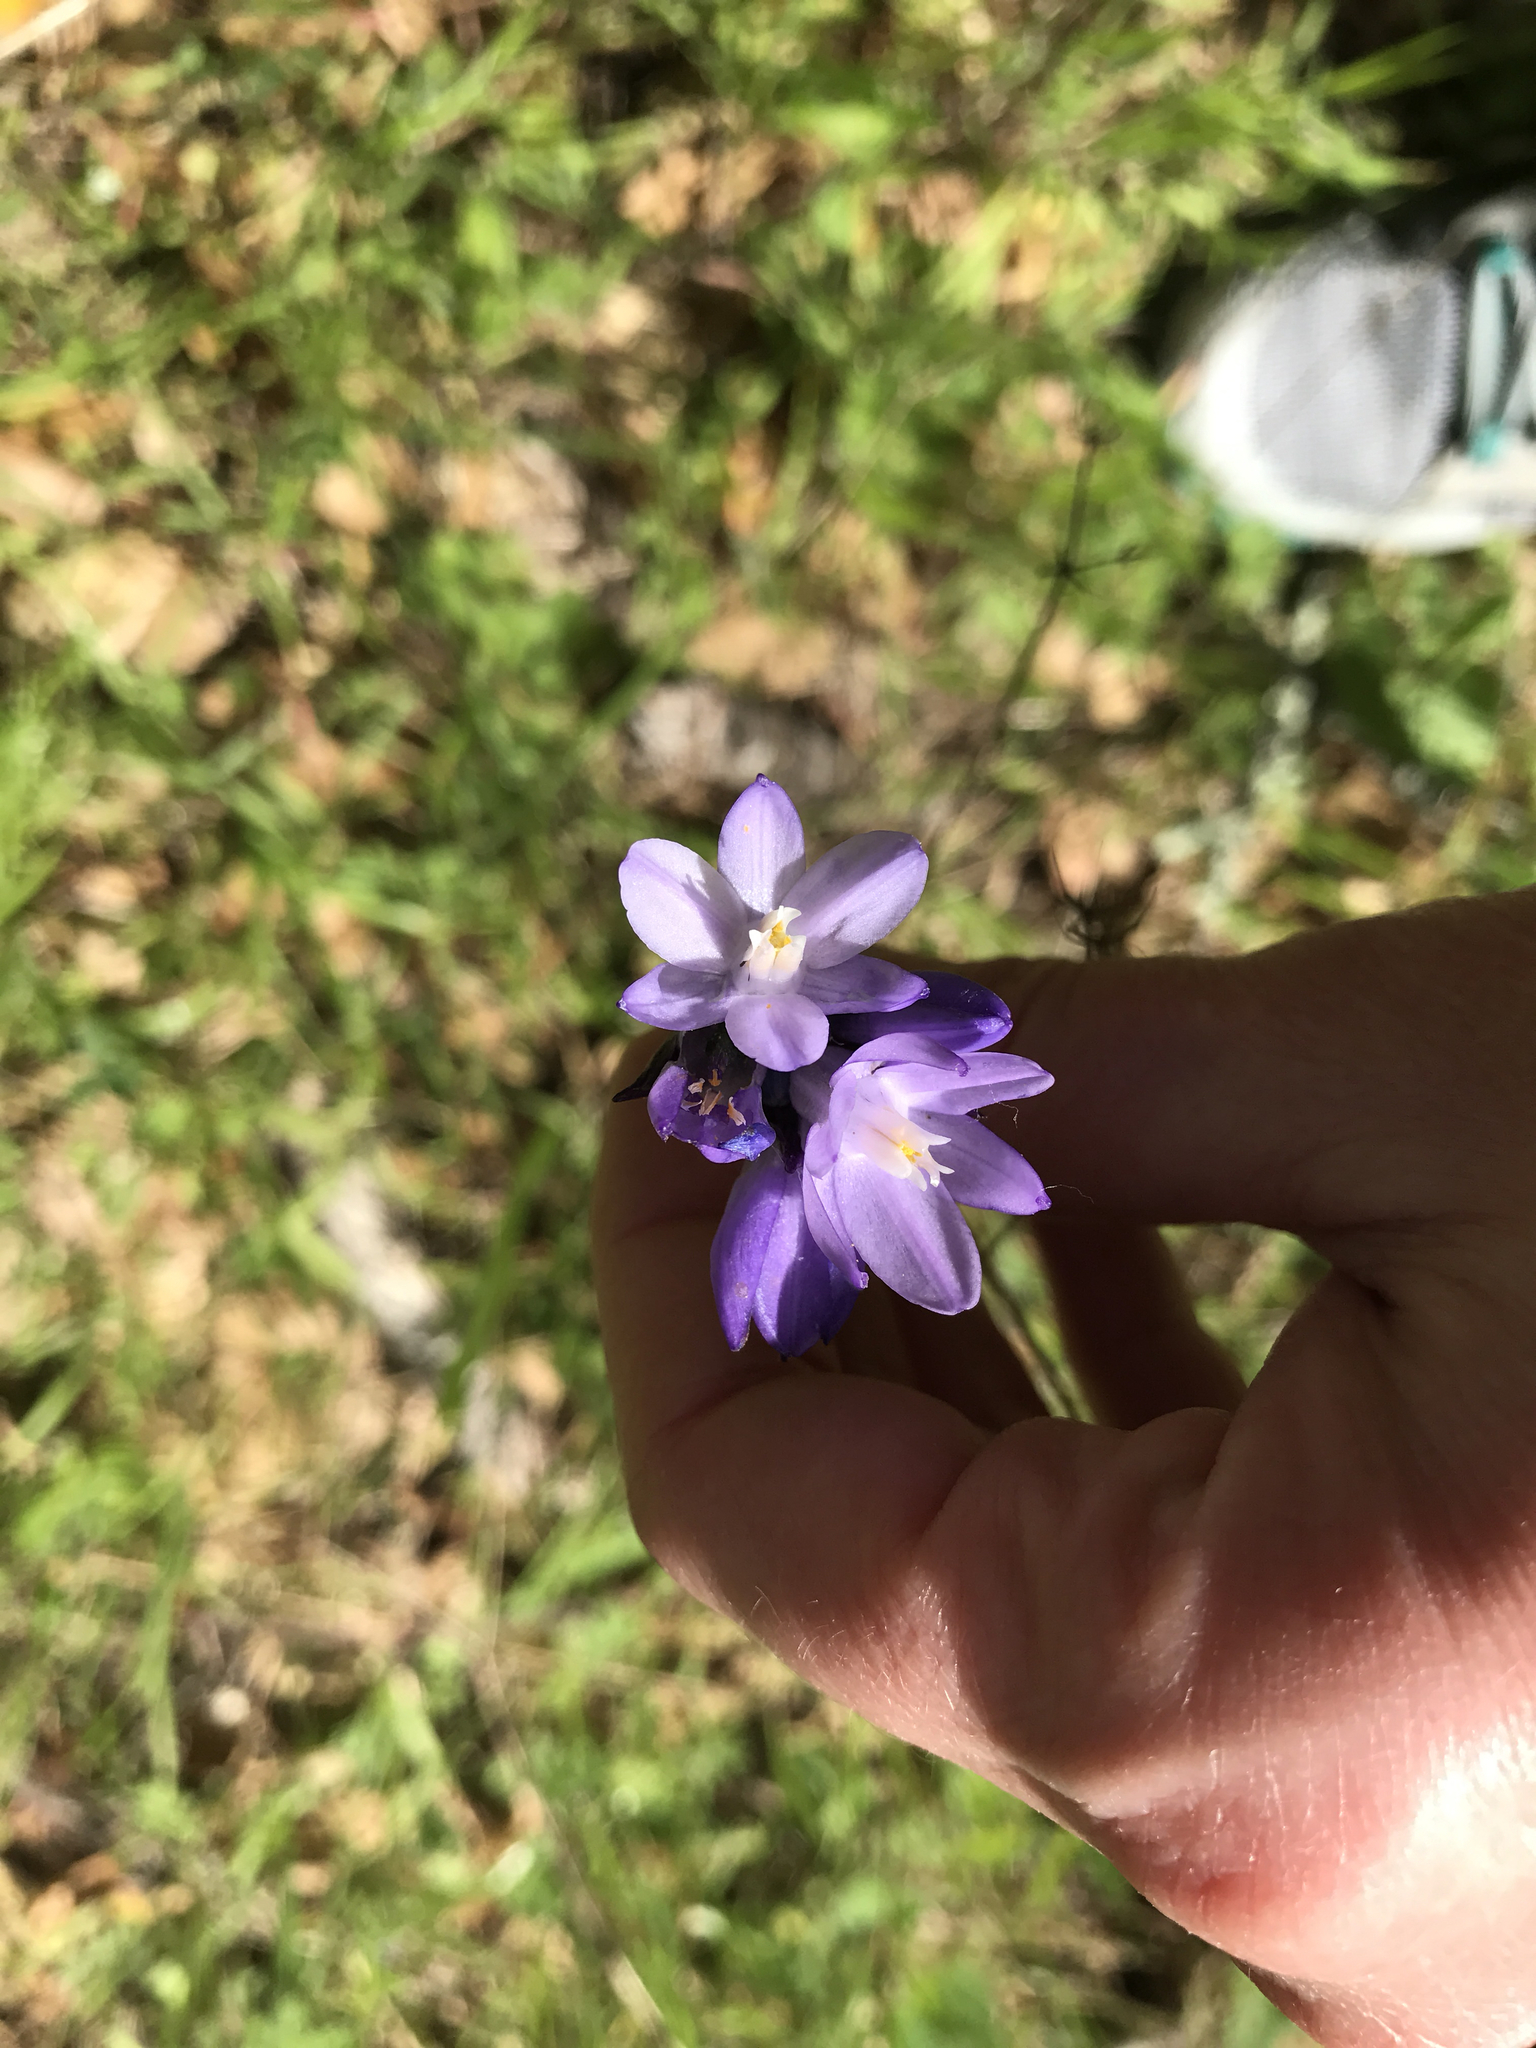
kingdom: Plantae
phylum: Tracheophyta
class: Liliopsida
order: Asparagales
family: Asparagaceae
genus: Dipterostemon
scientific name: Dipterostemon capitatus
